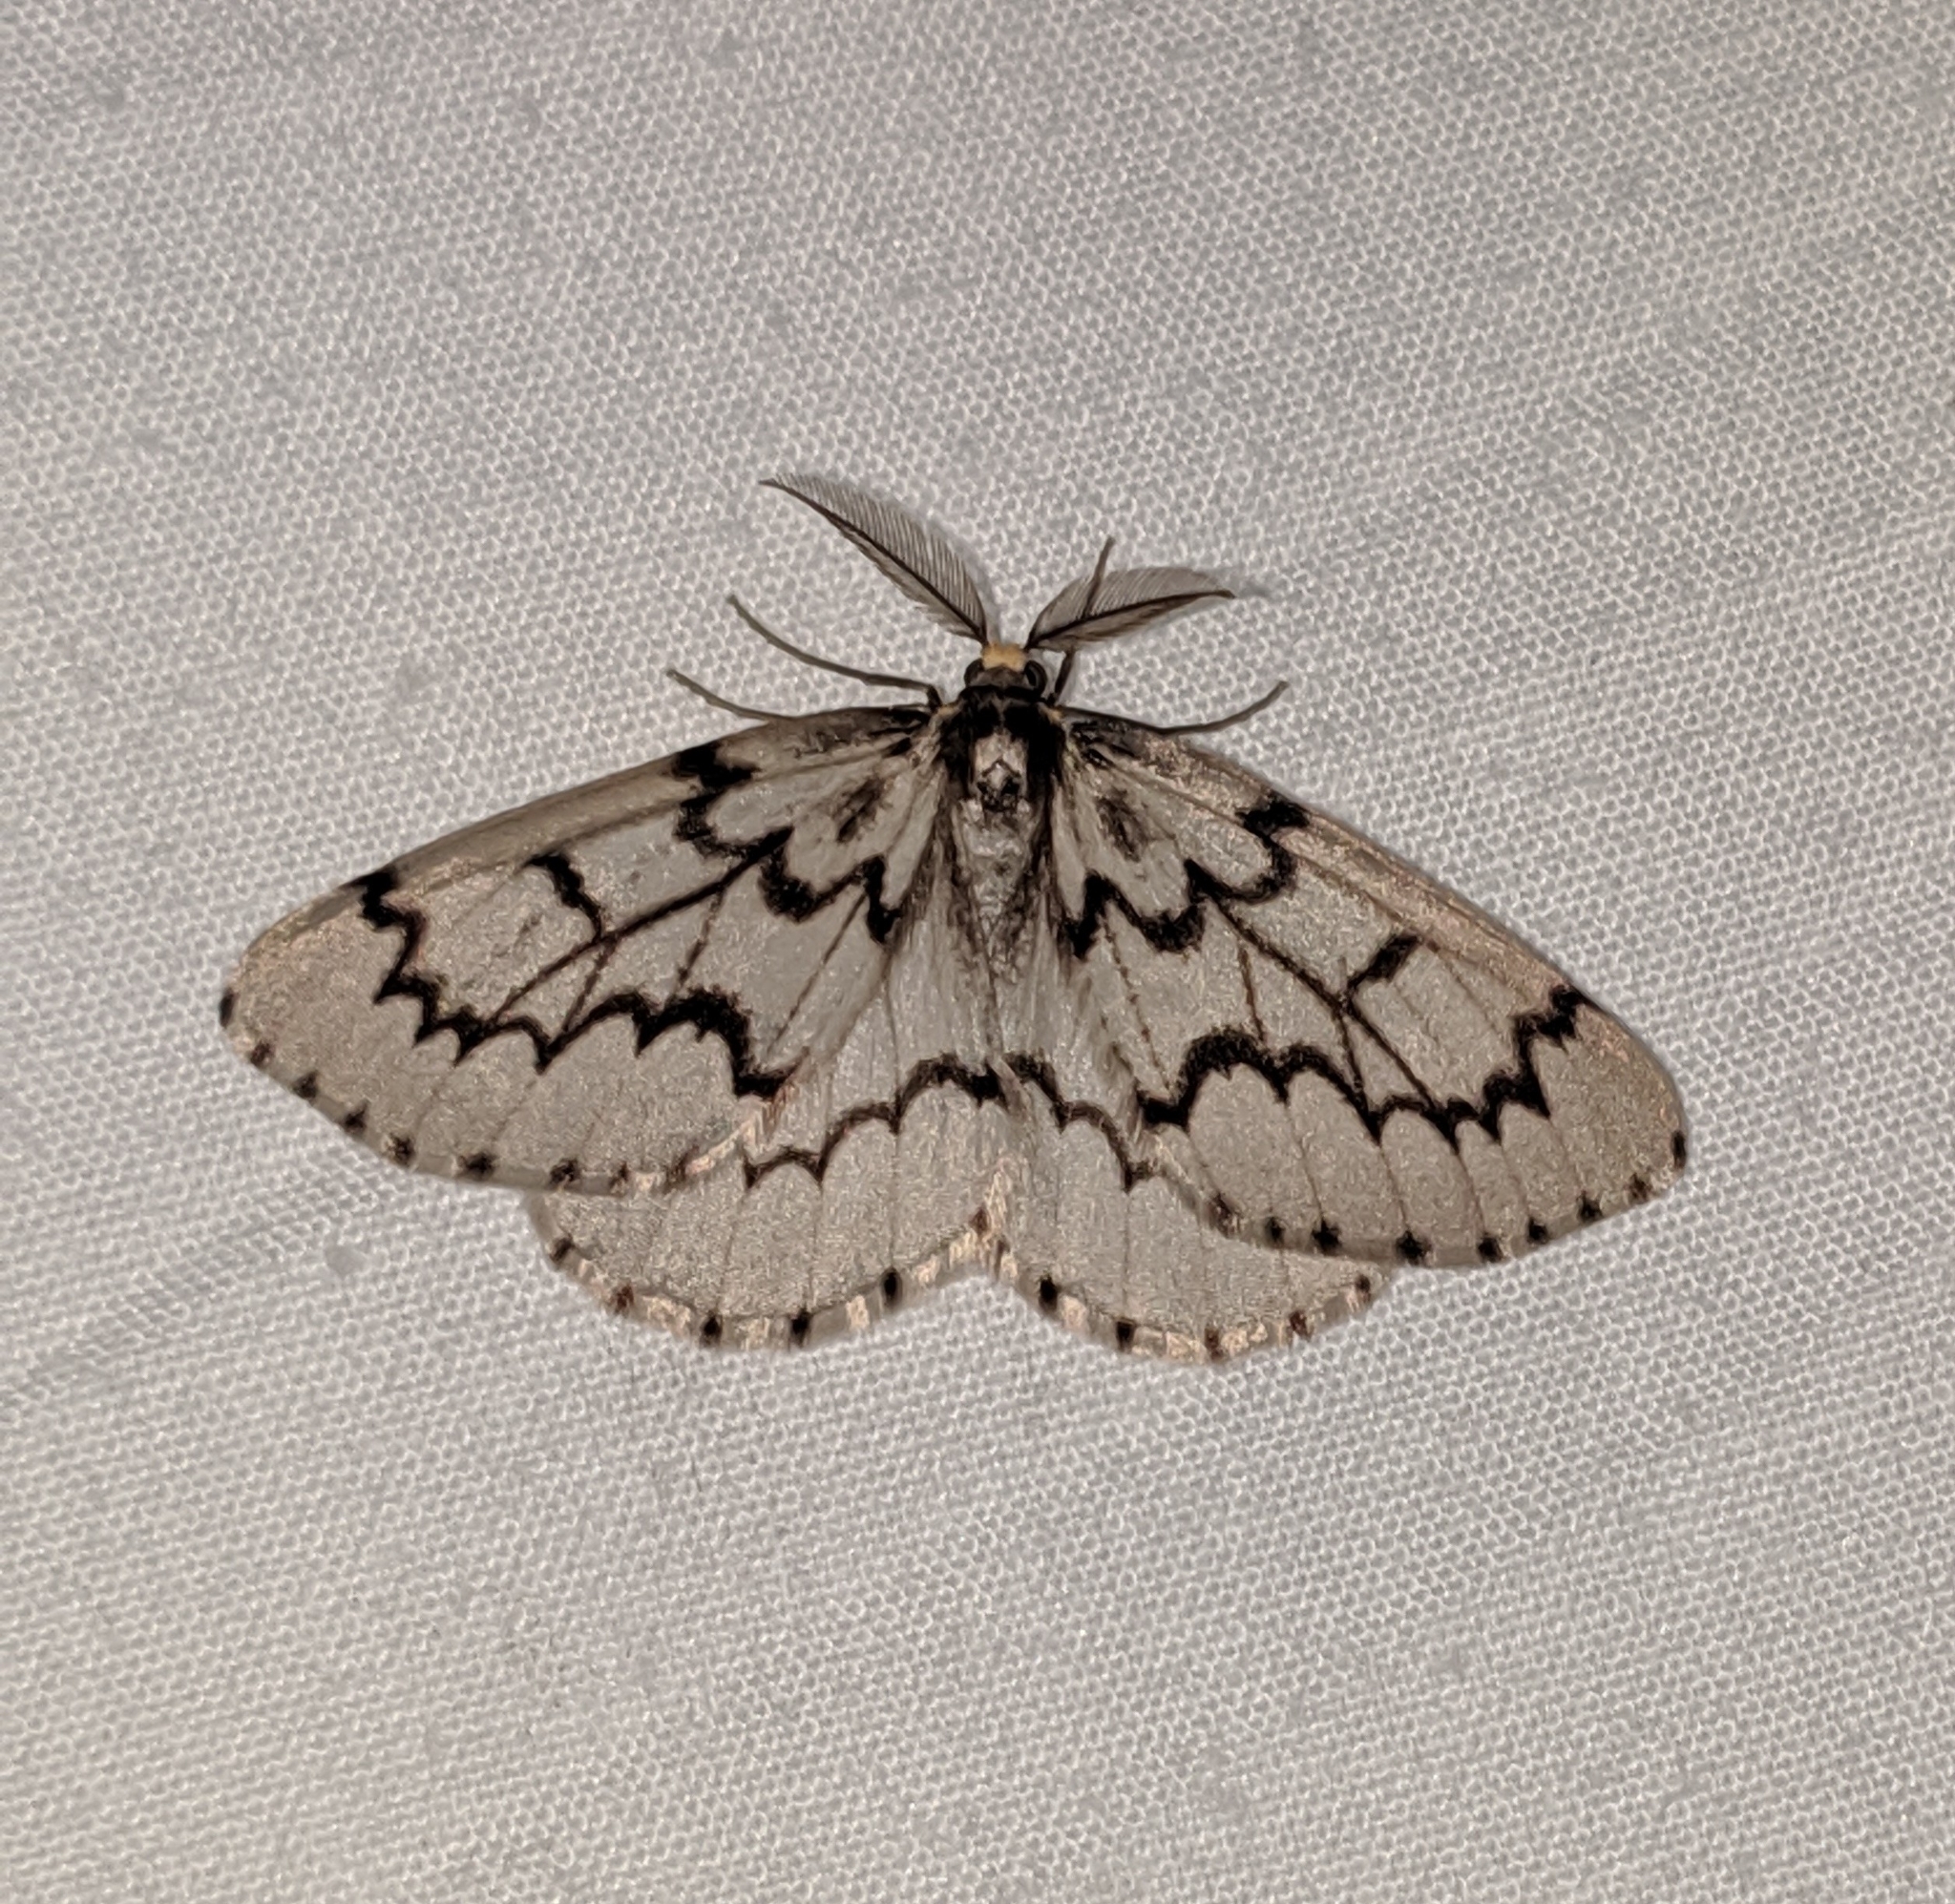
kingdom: Animalia
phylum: Arthropoda
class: Insecta
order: Lepidoptera
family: Geometridae
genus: Nepytia
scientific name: Nepytia phantasmaria
